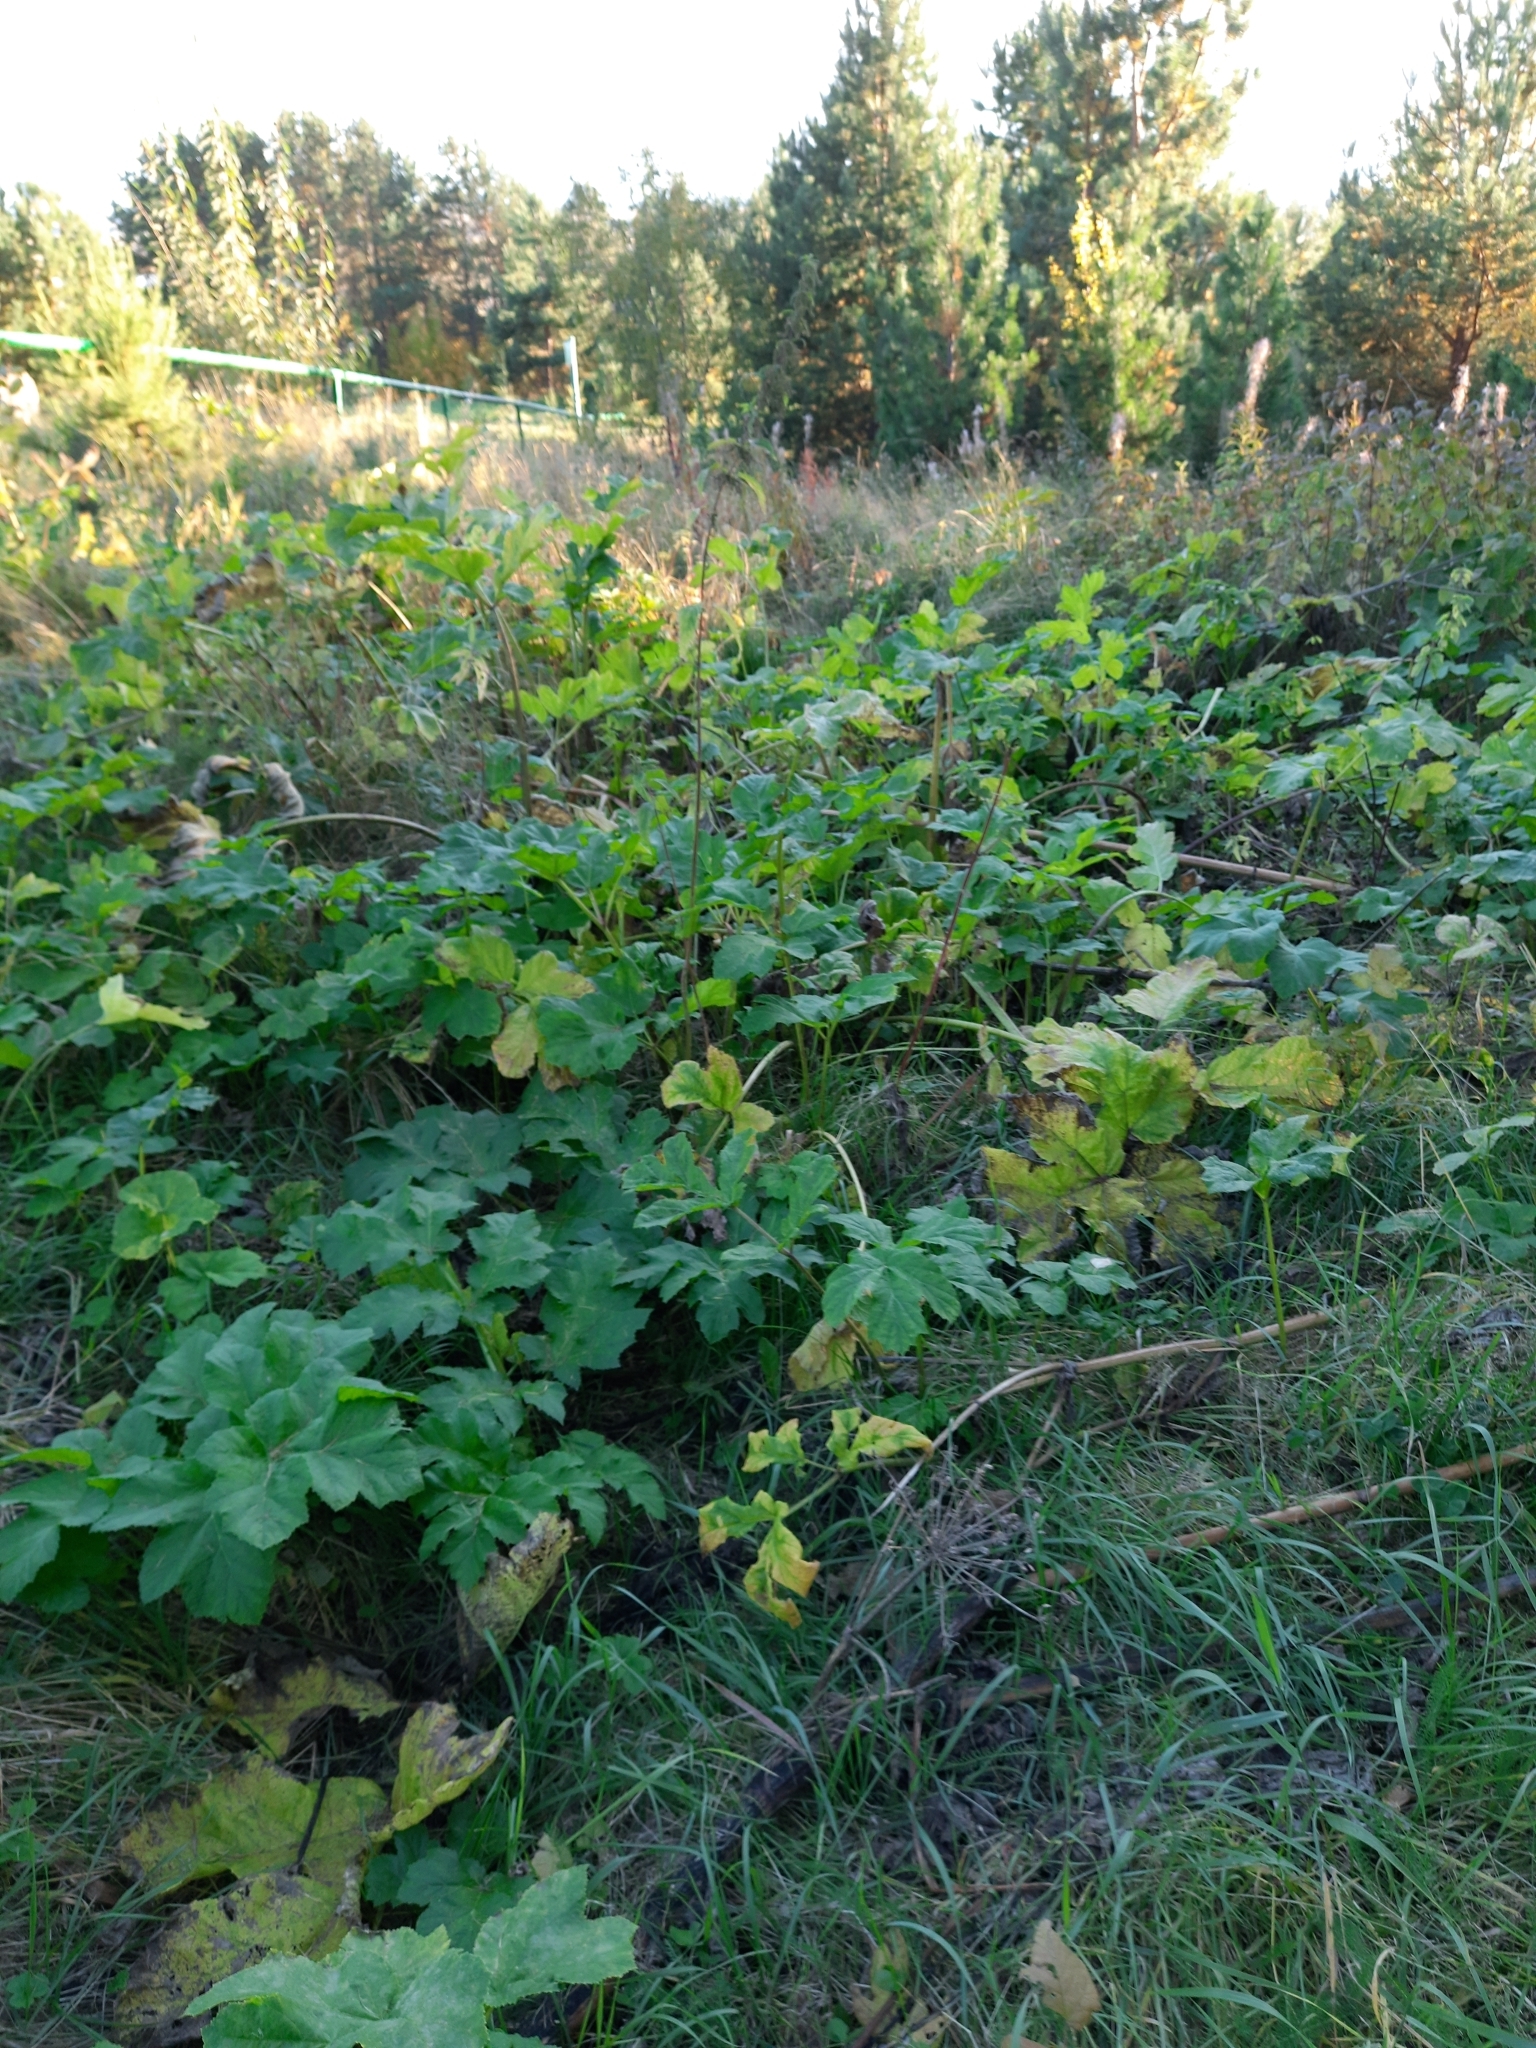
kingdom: Plantae
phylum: Tracheophyta
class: Magnoliopsida
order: Apiales
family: Apiaceae
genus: Heracleum
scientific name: Heracleum sosnowskyi
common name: Sosnowsky's hogweed
